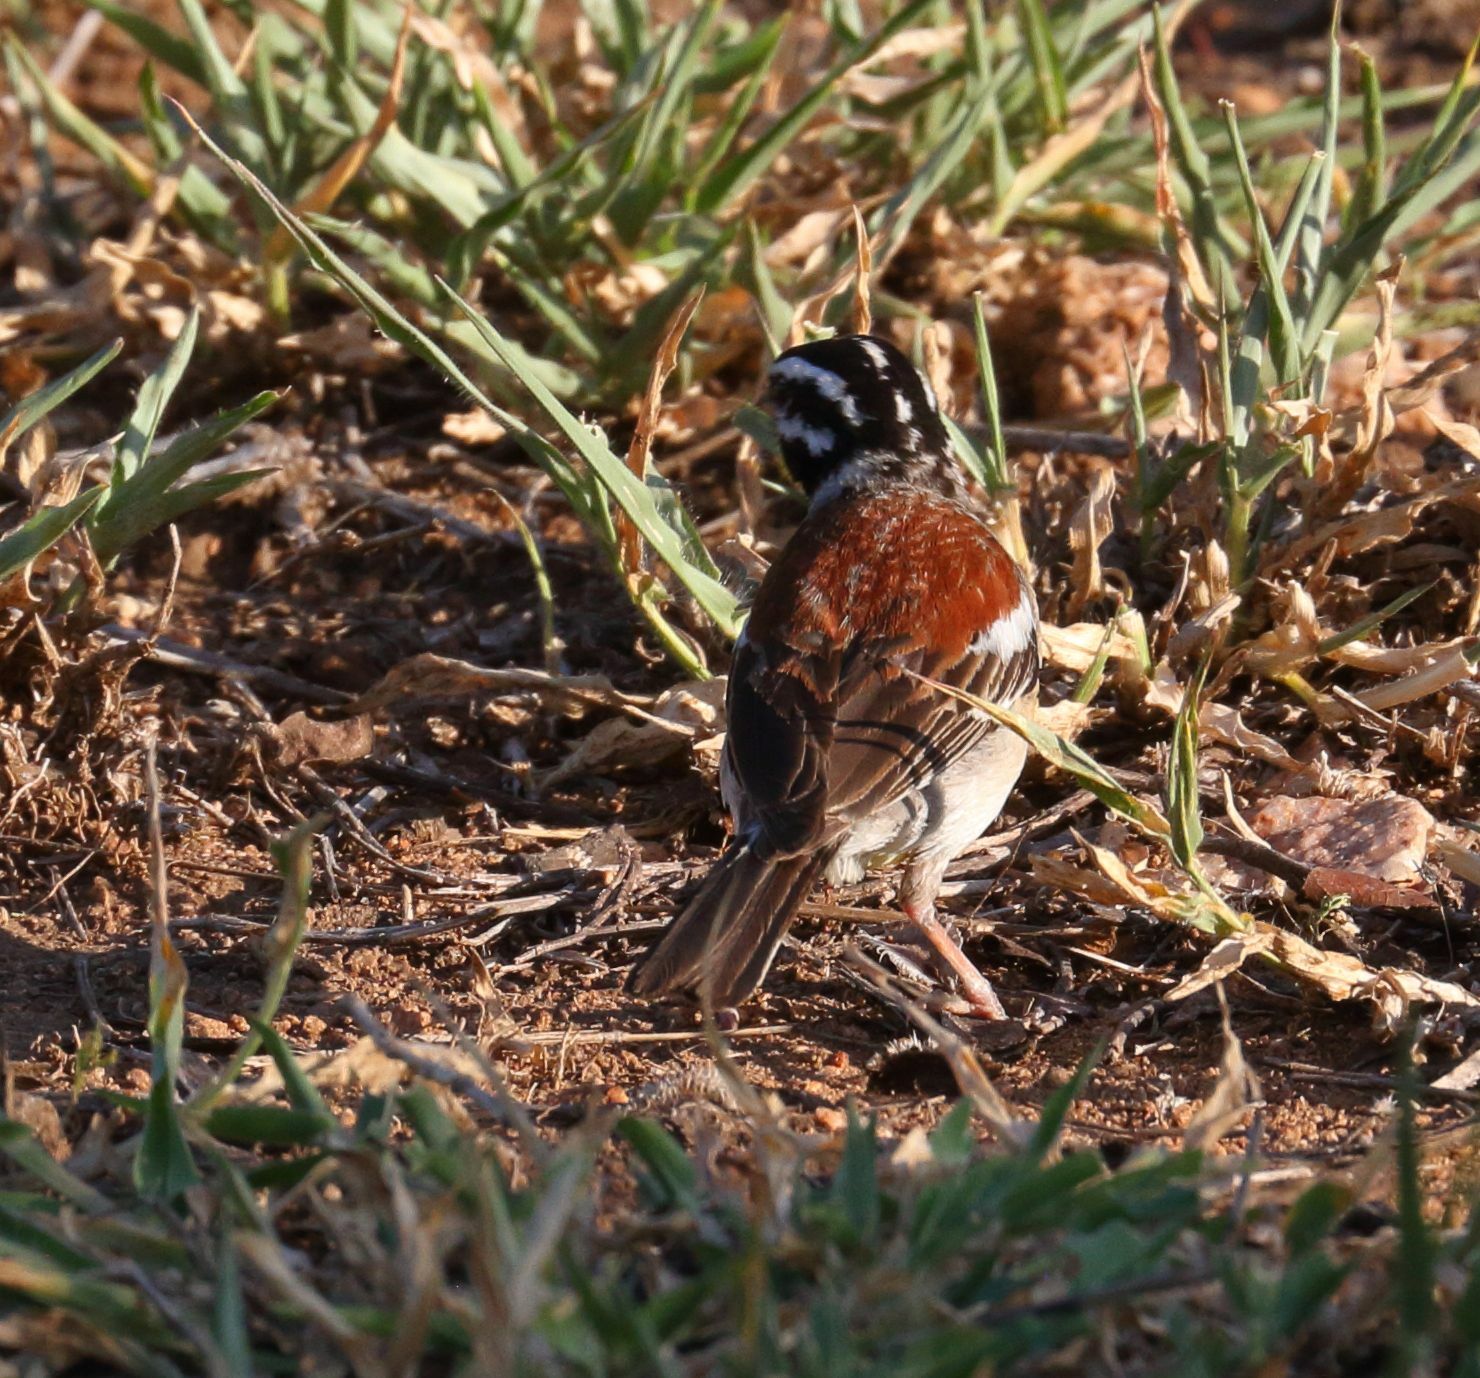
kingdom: Animalia
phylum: Chordata
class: Aves
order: Passeriformes
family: Emberizidae
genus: Emberiza
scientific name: Emberiza flaviventris
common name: Golden-breasted bunting
